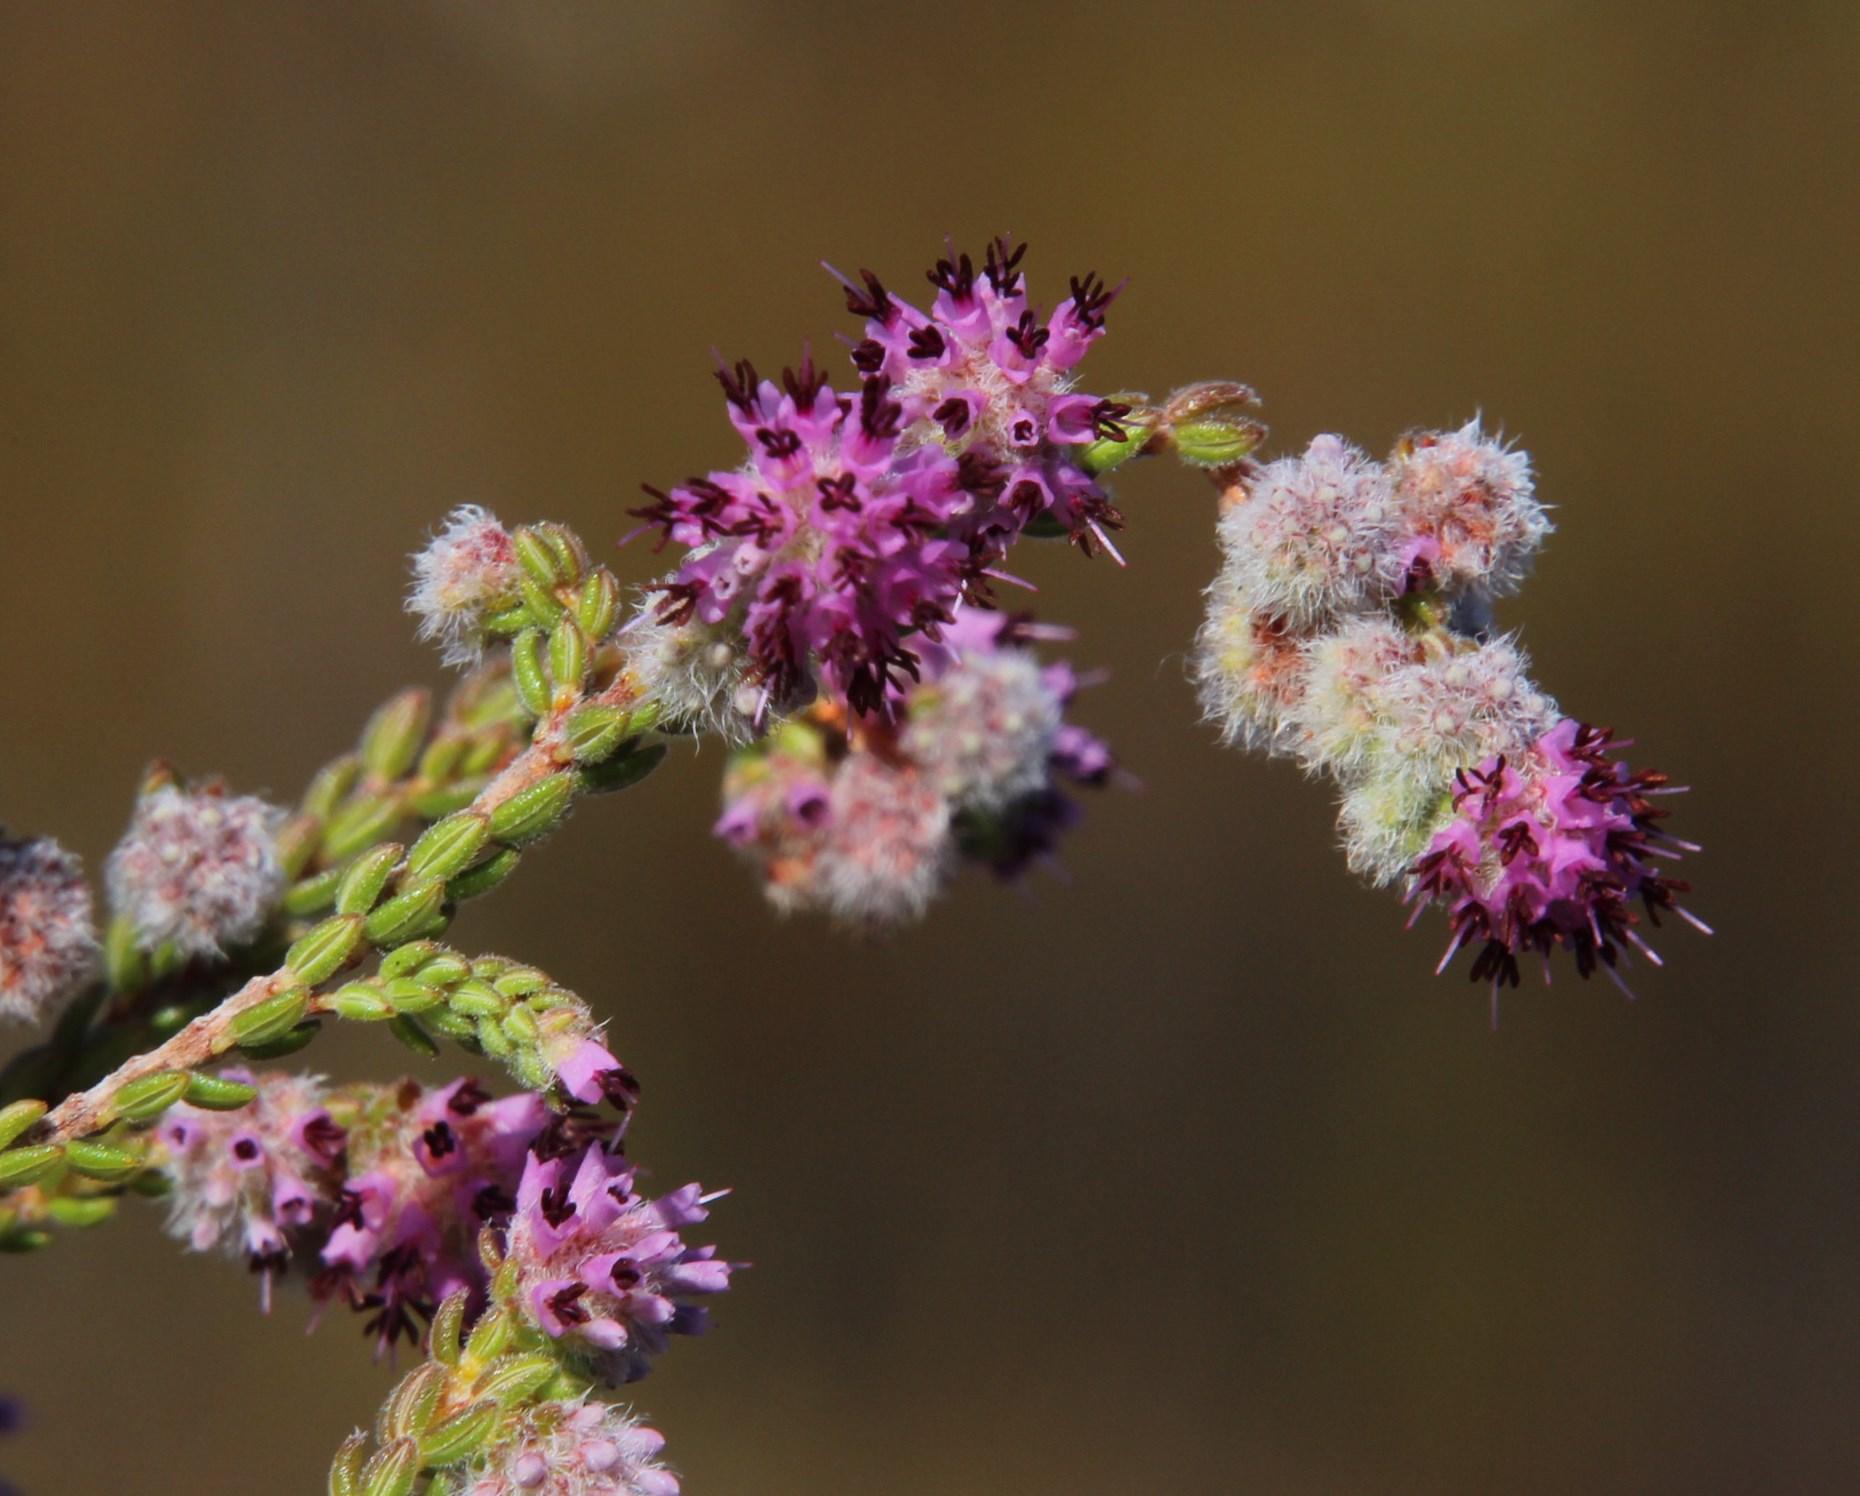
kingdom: Plantae
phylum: Tracheophyta
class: Magnoliopsida
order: Ericales
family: Ericaceae
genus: Erica
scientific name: Erica similis
